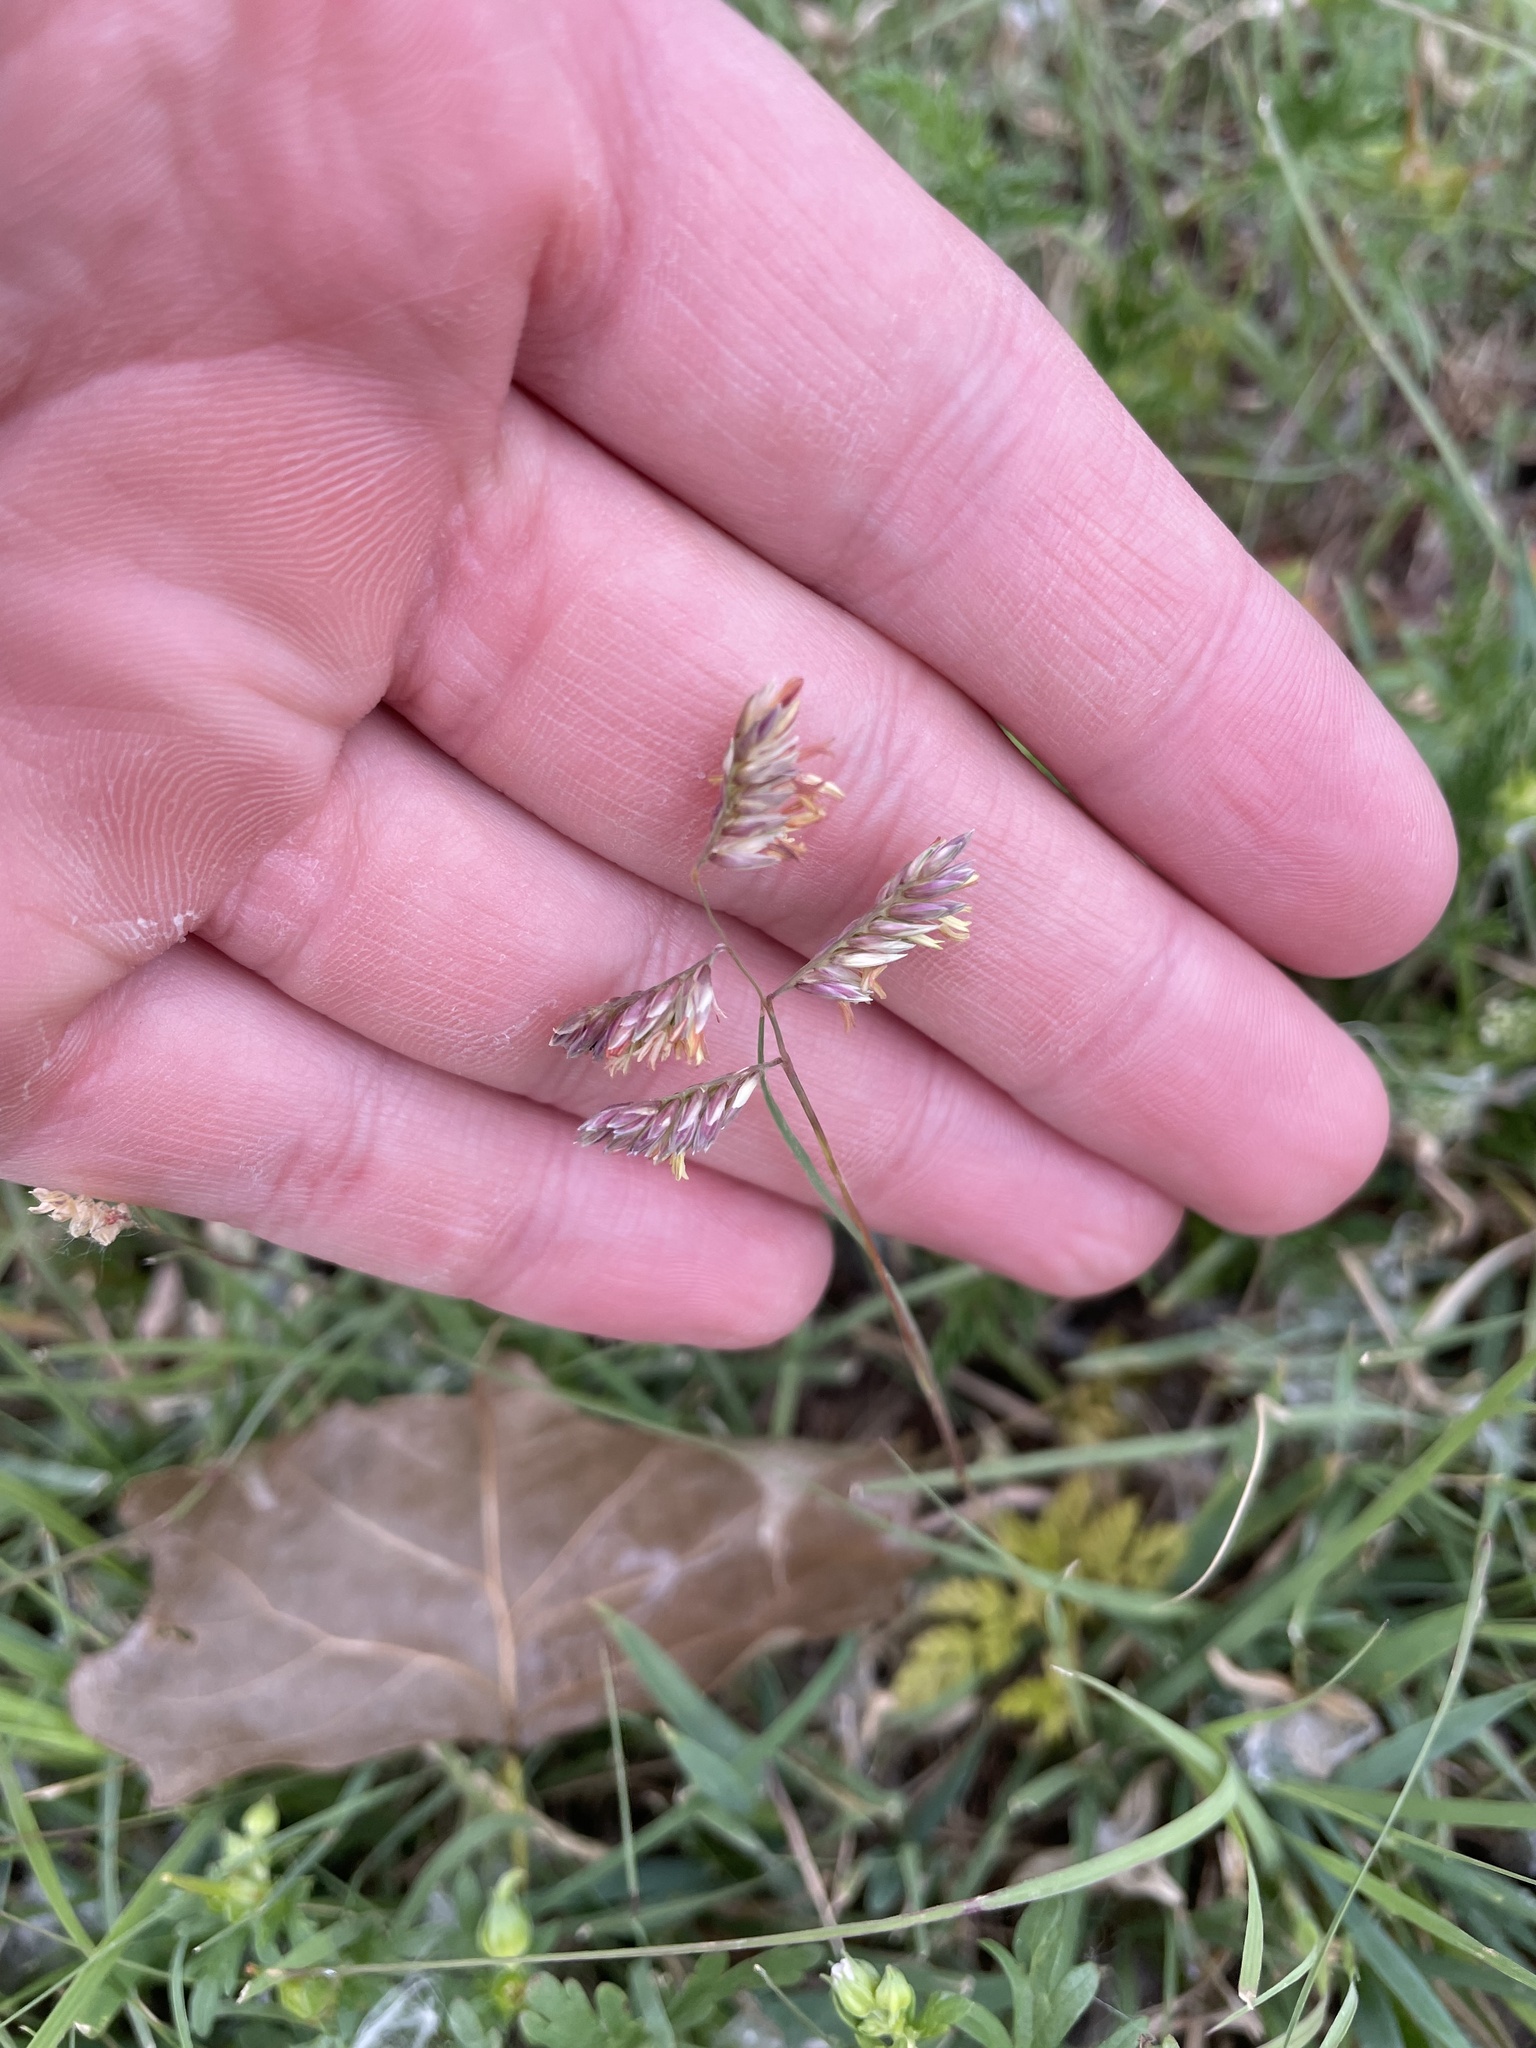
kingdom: Plantae
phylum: Tracheophyta
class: Liliopsida
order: Poales
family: Poaceae
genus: Bouteloua
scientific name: Bouteloua dactyloides
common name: Buffalo grass
